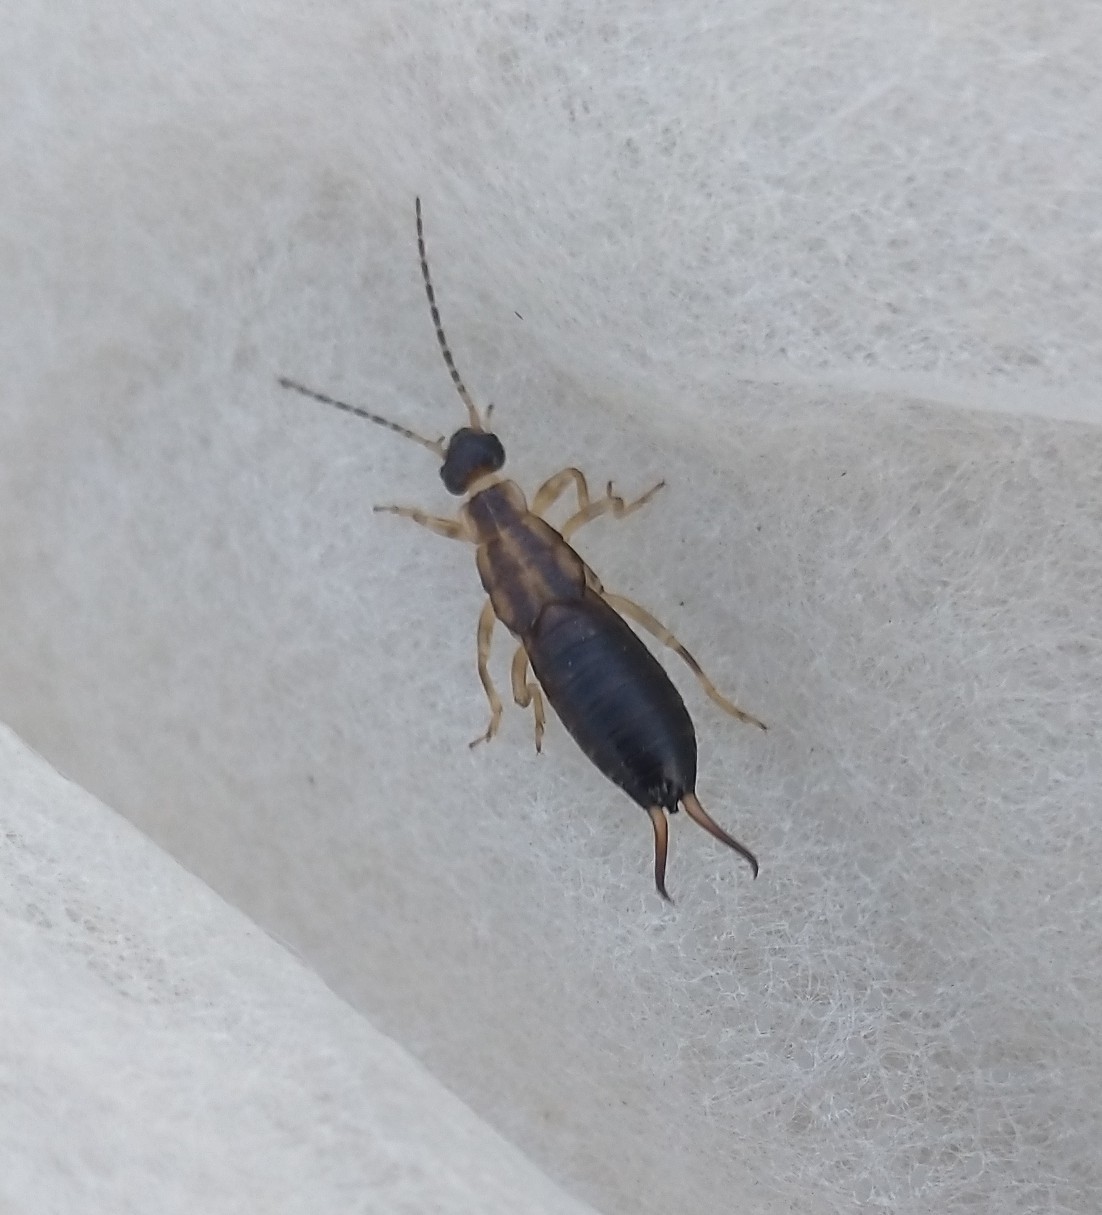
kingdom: Animalia
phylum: Arthropoda
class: Insecta
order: Dermaptera
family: Forficulidae
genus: Forficula
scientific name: Forficula
